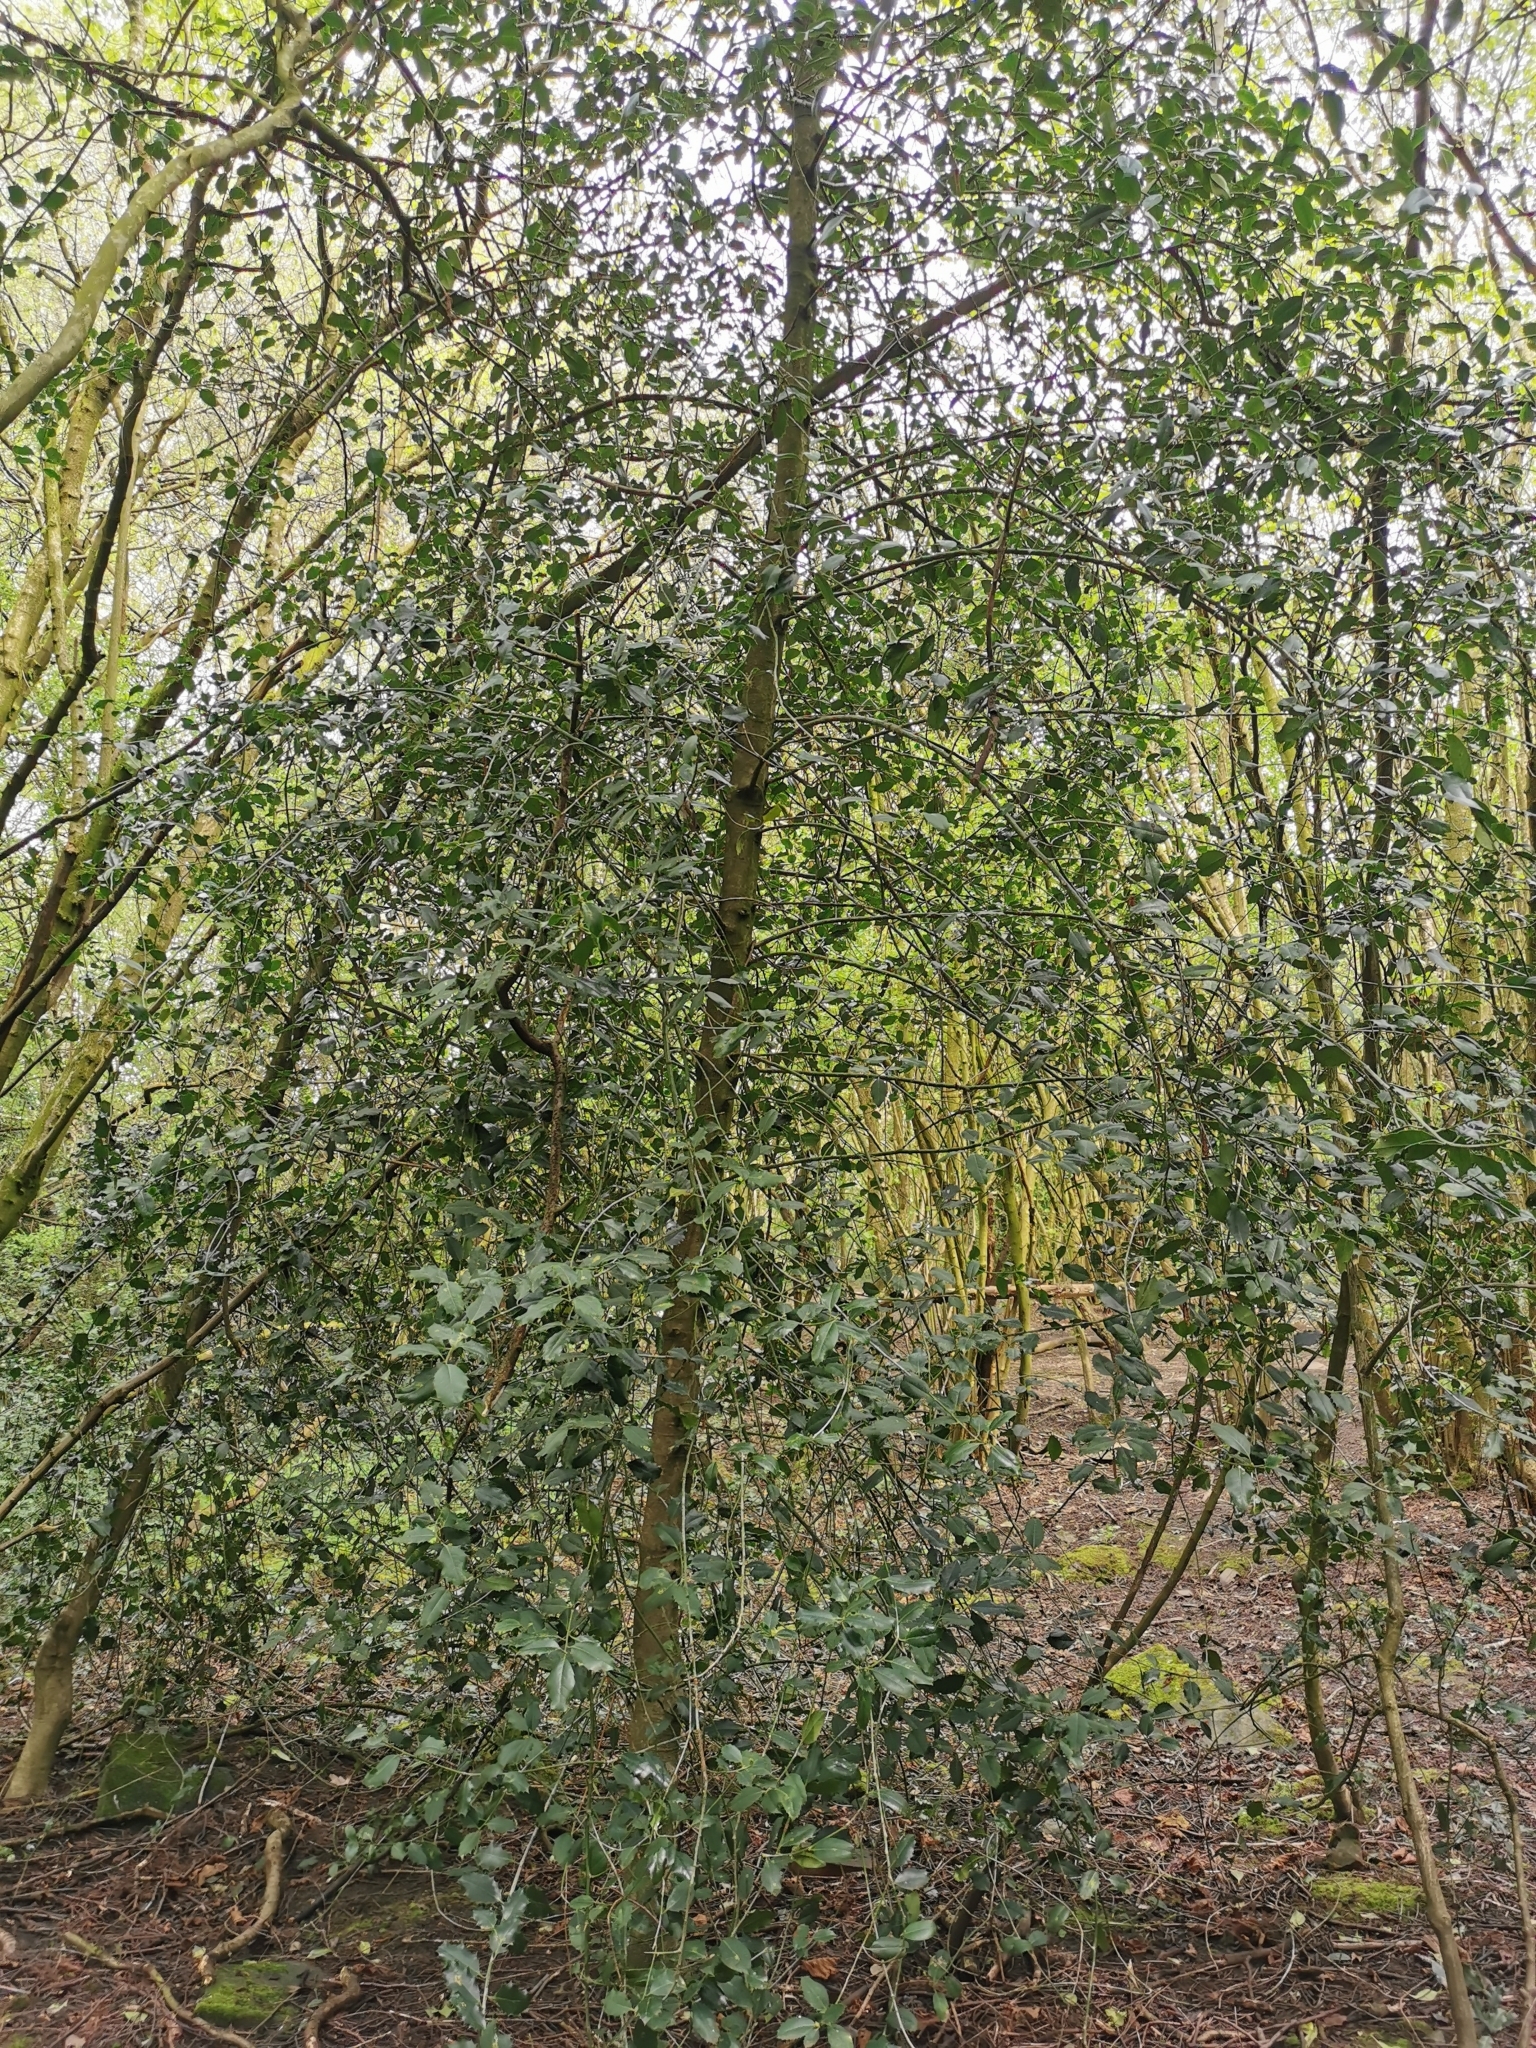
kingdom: Plantae
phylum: Tracheophyta
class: Magnoliopsida
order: Aquifoliales
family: Aquifoliaceae
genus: Ilex
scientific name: Ilex aquifolium
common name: English holly
